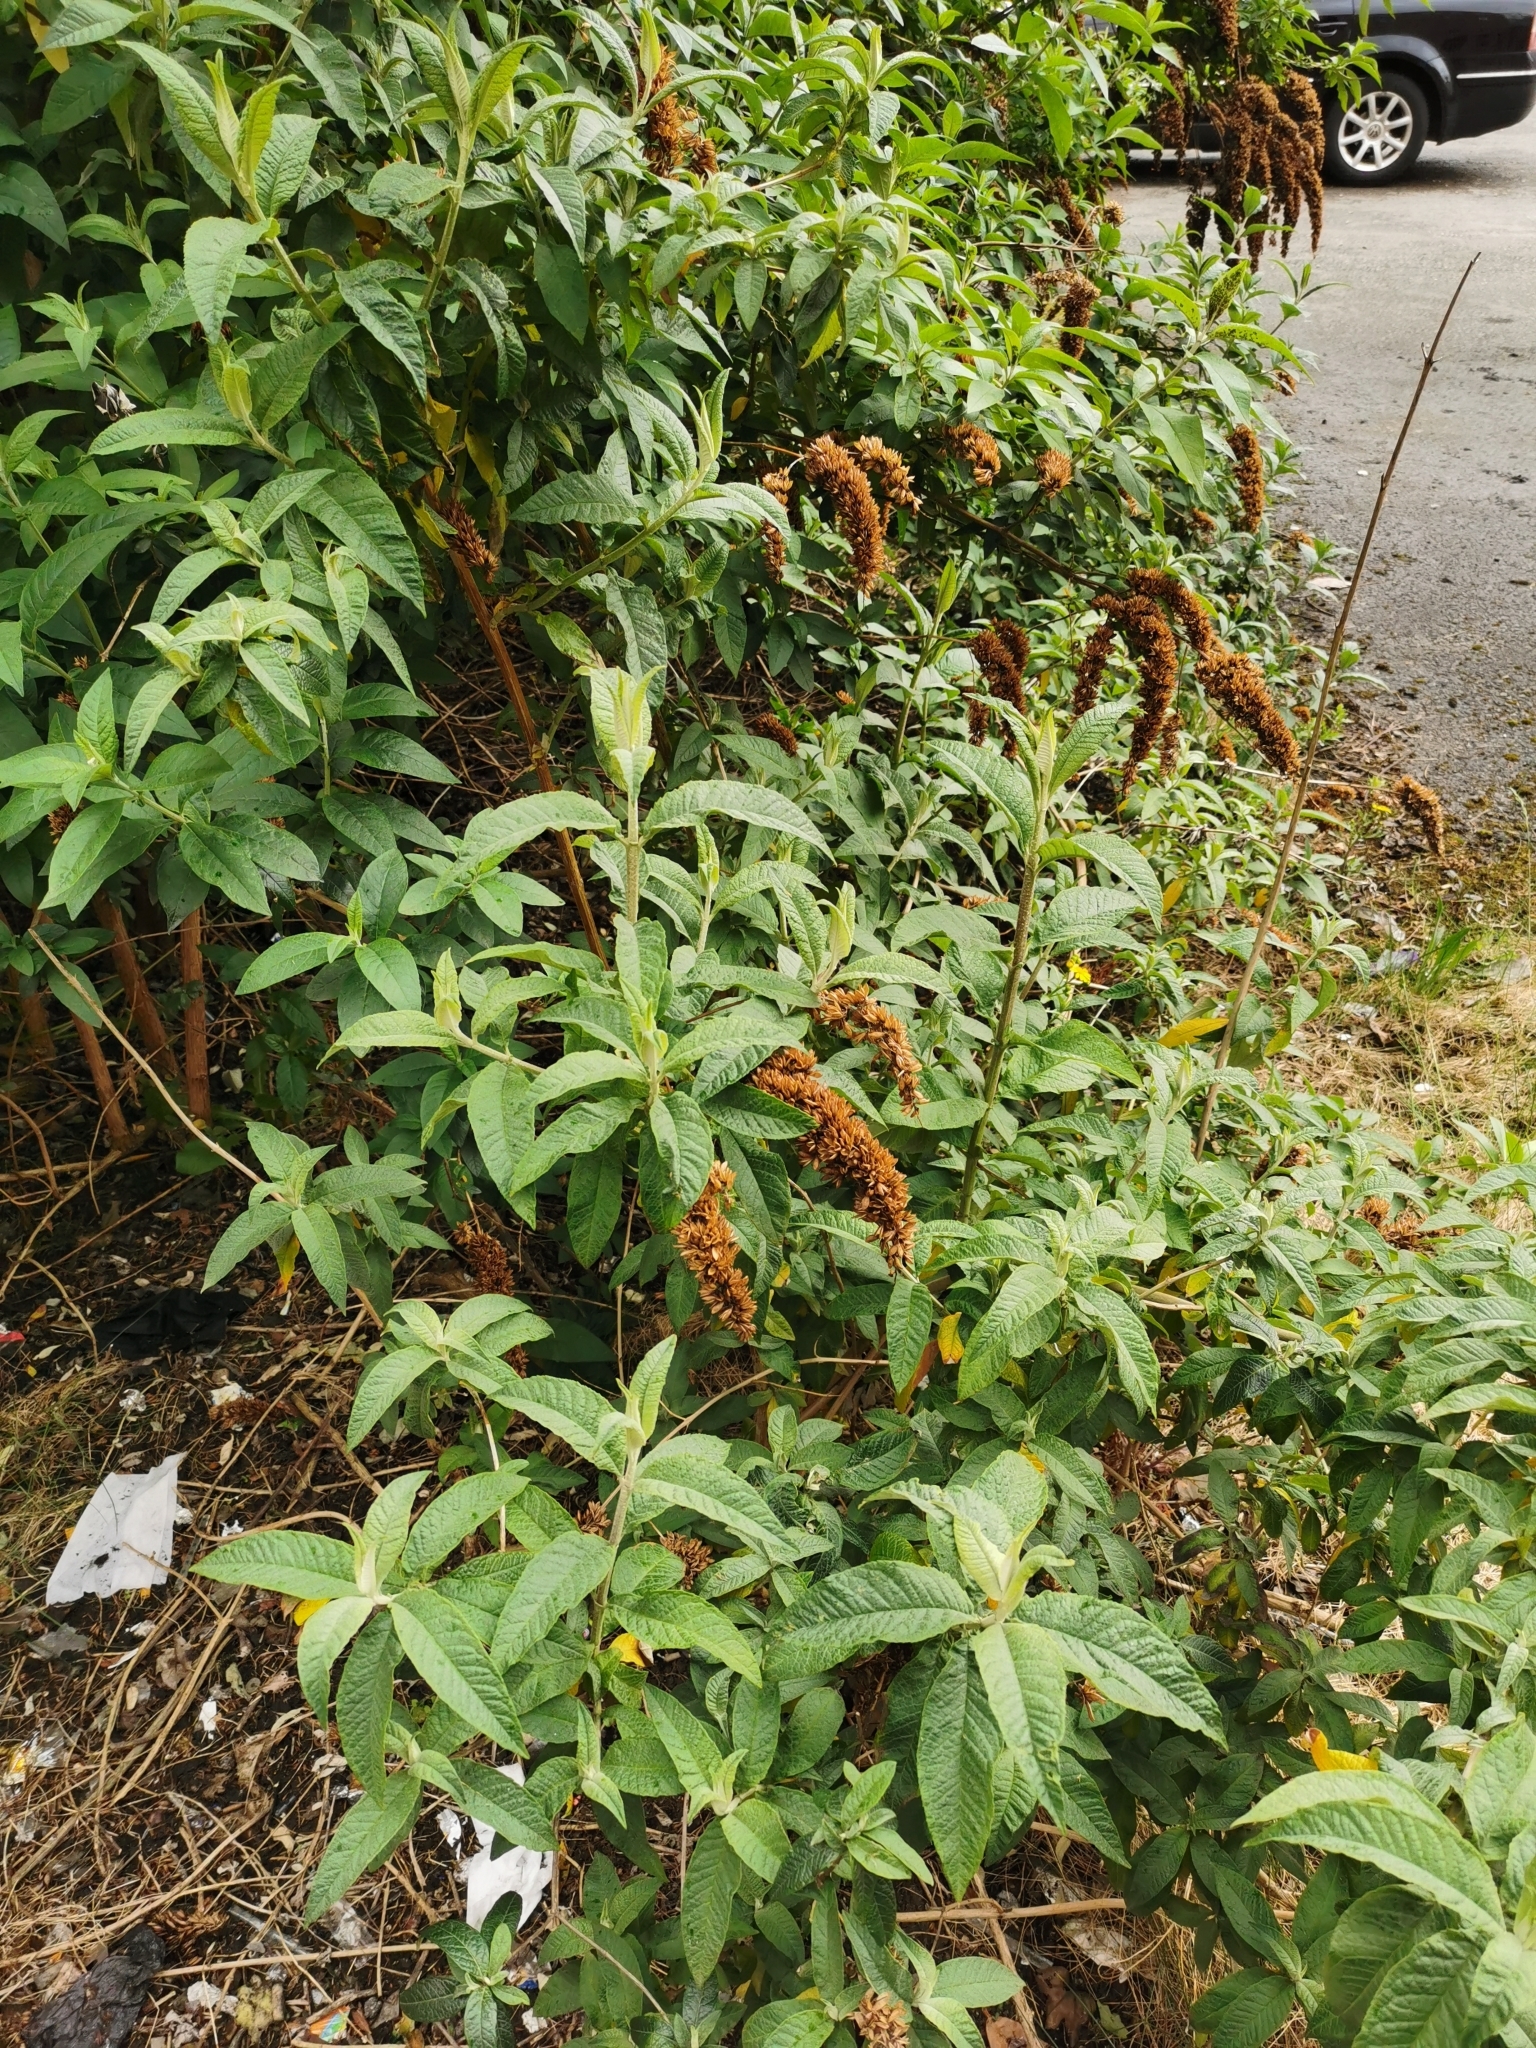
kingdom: Plantae
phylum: Tracheophyta
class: Magnoliopsida
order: Lamiales
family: Scrophulariaceae
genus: Buddleja
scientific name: Buddleja davidii
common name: Butterfly-bush
